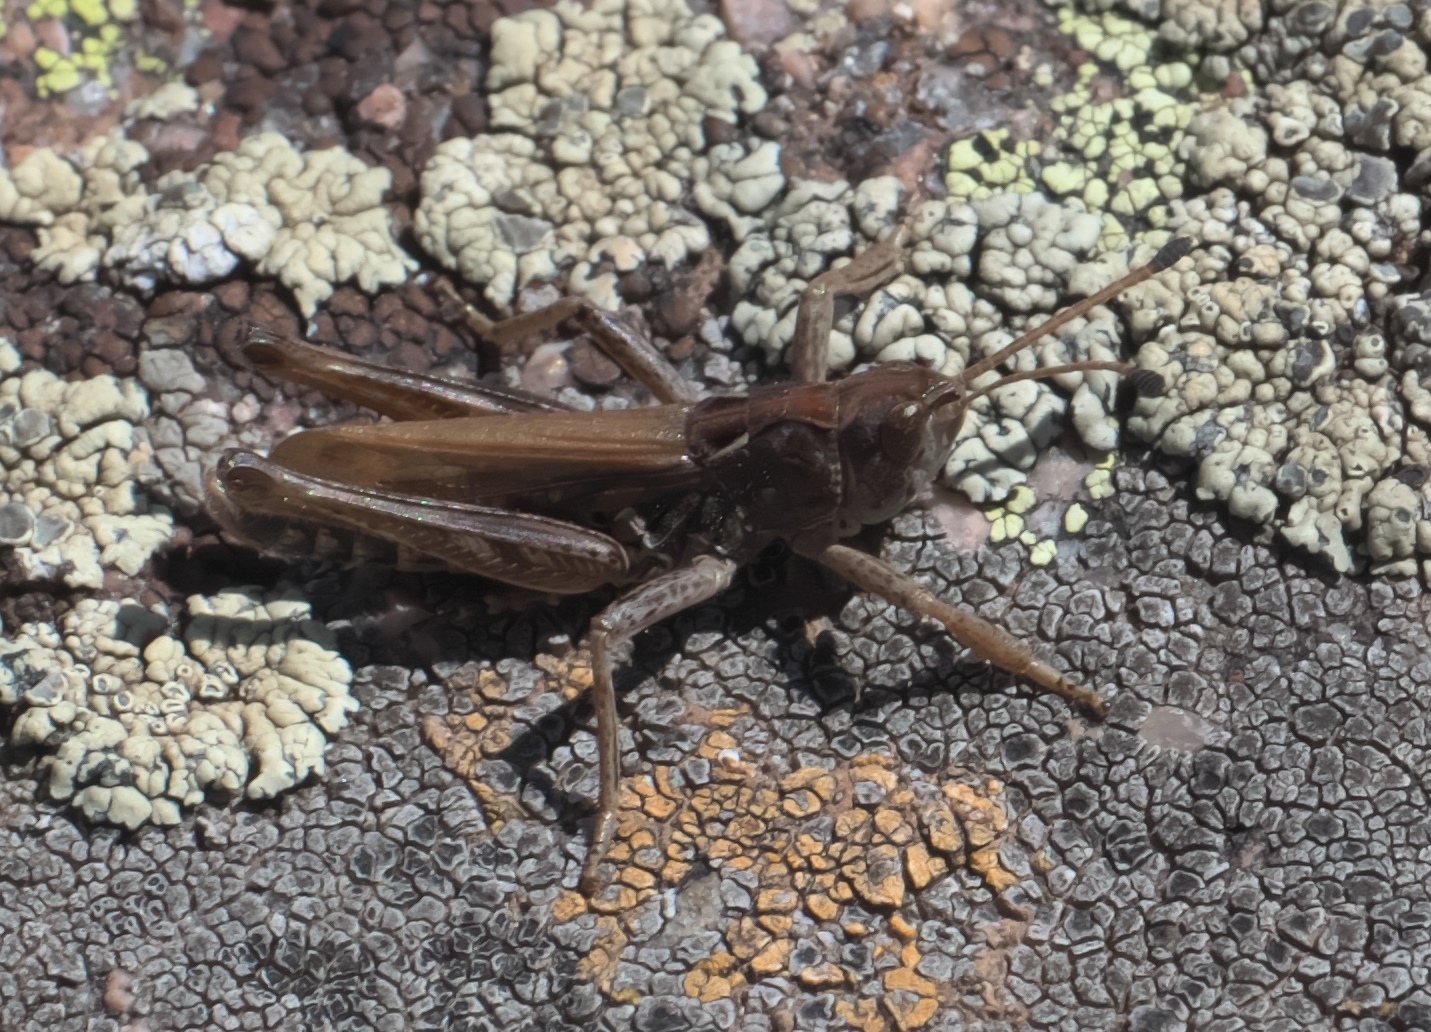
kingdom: Animalia
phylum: Arthropoda
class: Insecta
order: Orthoptera
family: Acrididae
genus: Aeropedellus
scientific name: Aeropedellus clavatus
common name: Clubhorned grasshopper
